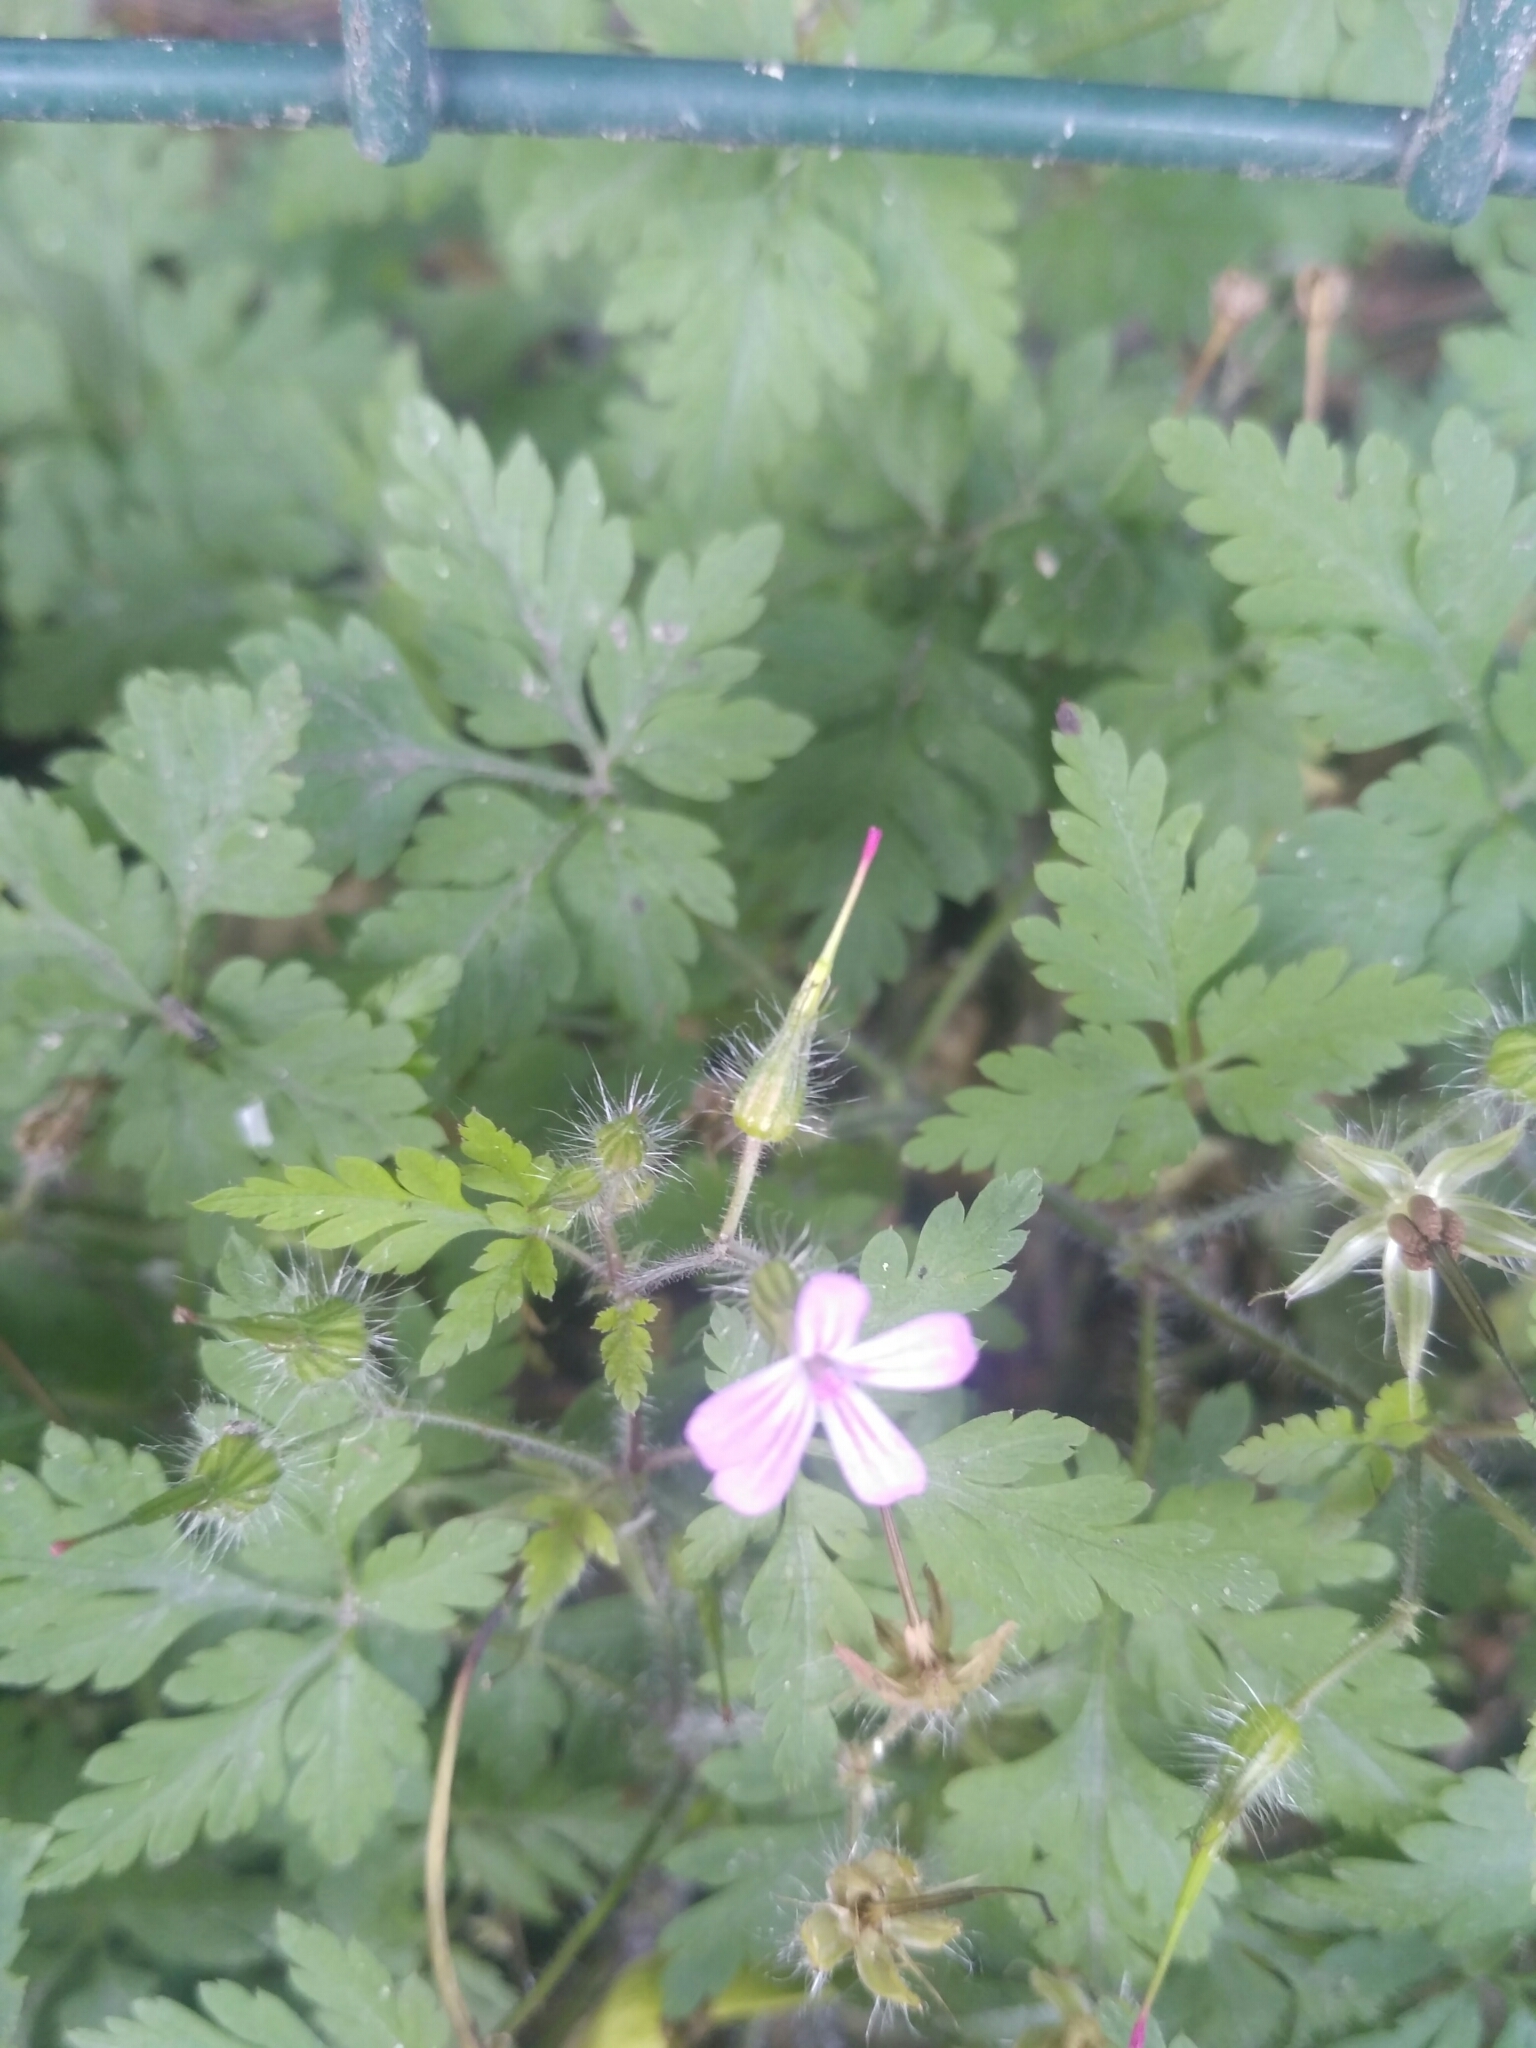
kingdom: Plantae
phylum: Tracheophyta
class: Magnoliopsida
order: Geraniales
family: Geraniaceae
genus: Geranium
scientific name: Geranium robertianum
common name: Herb-robert
